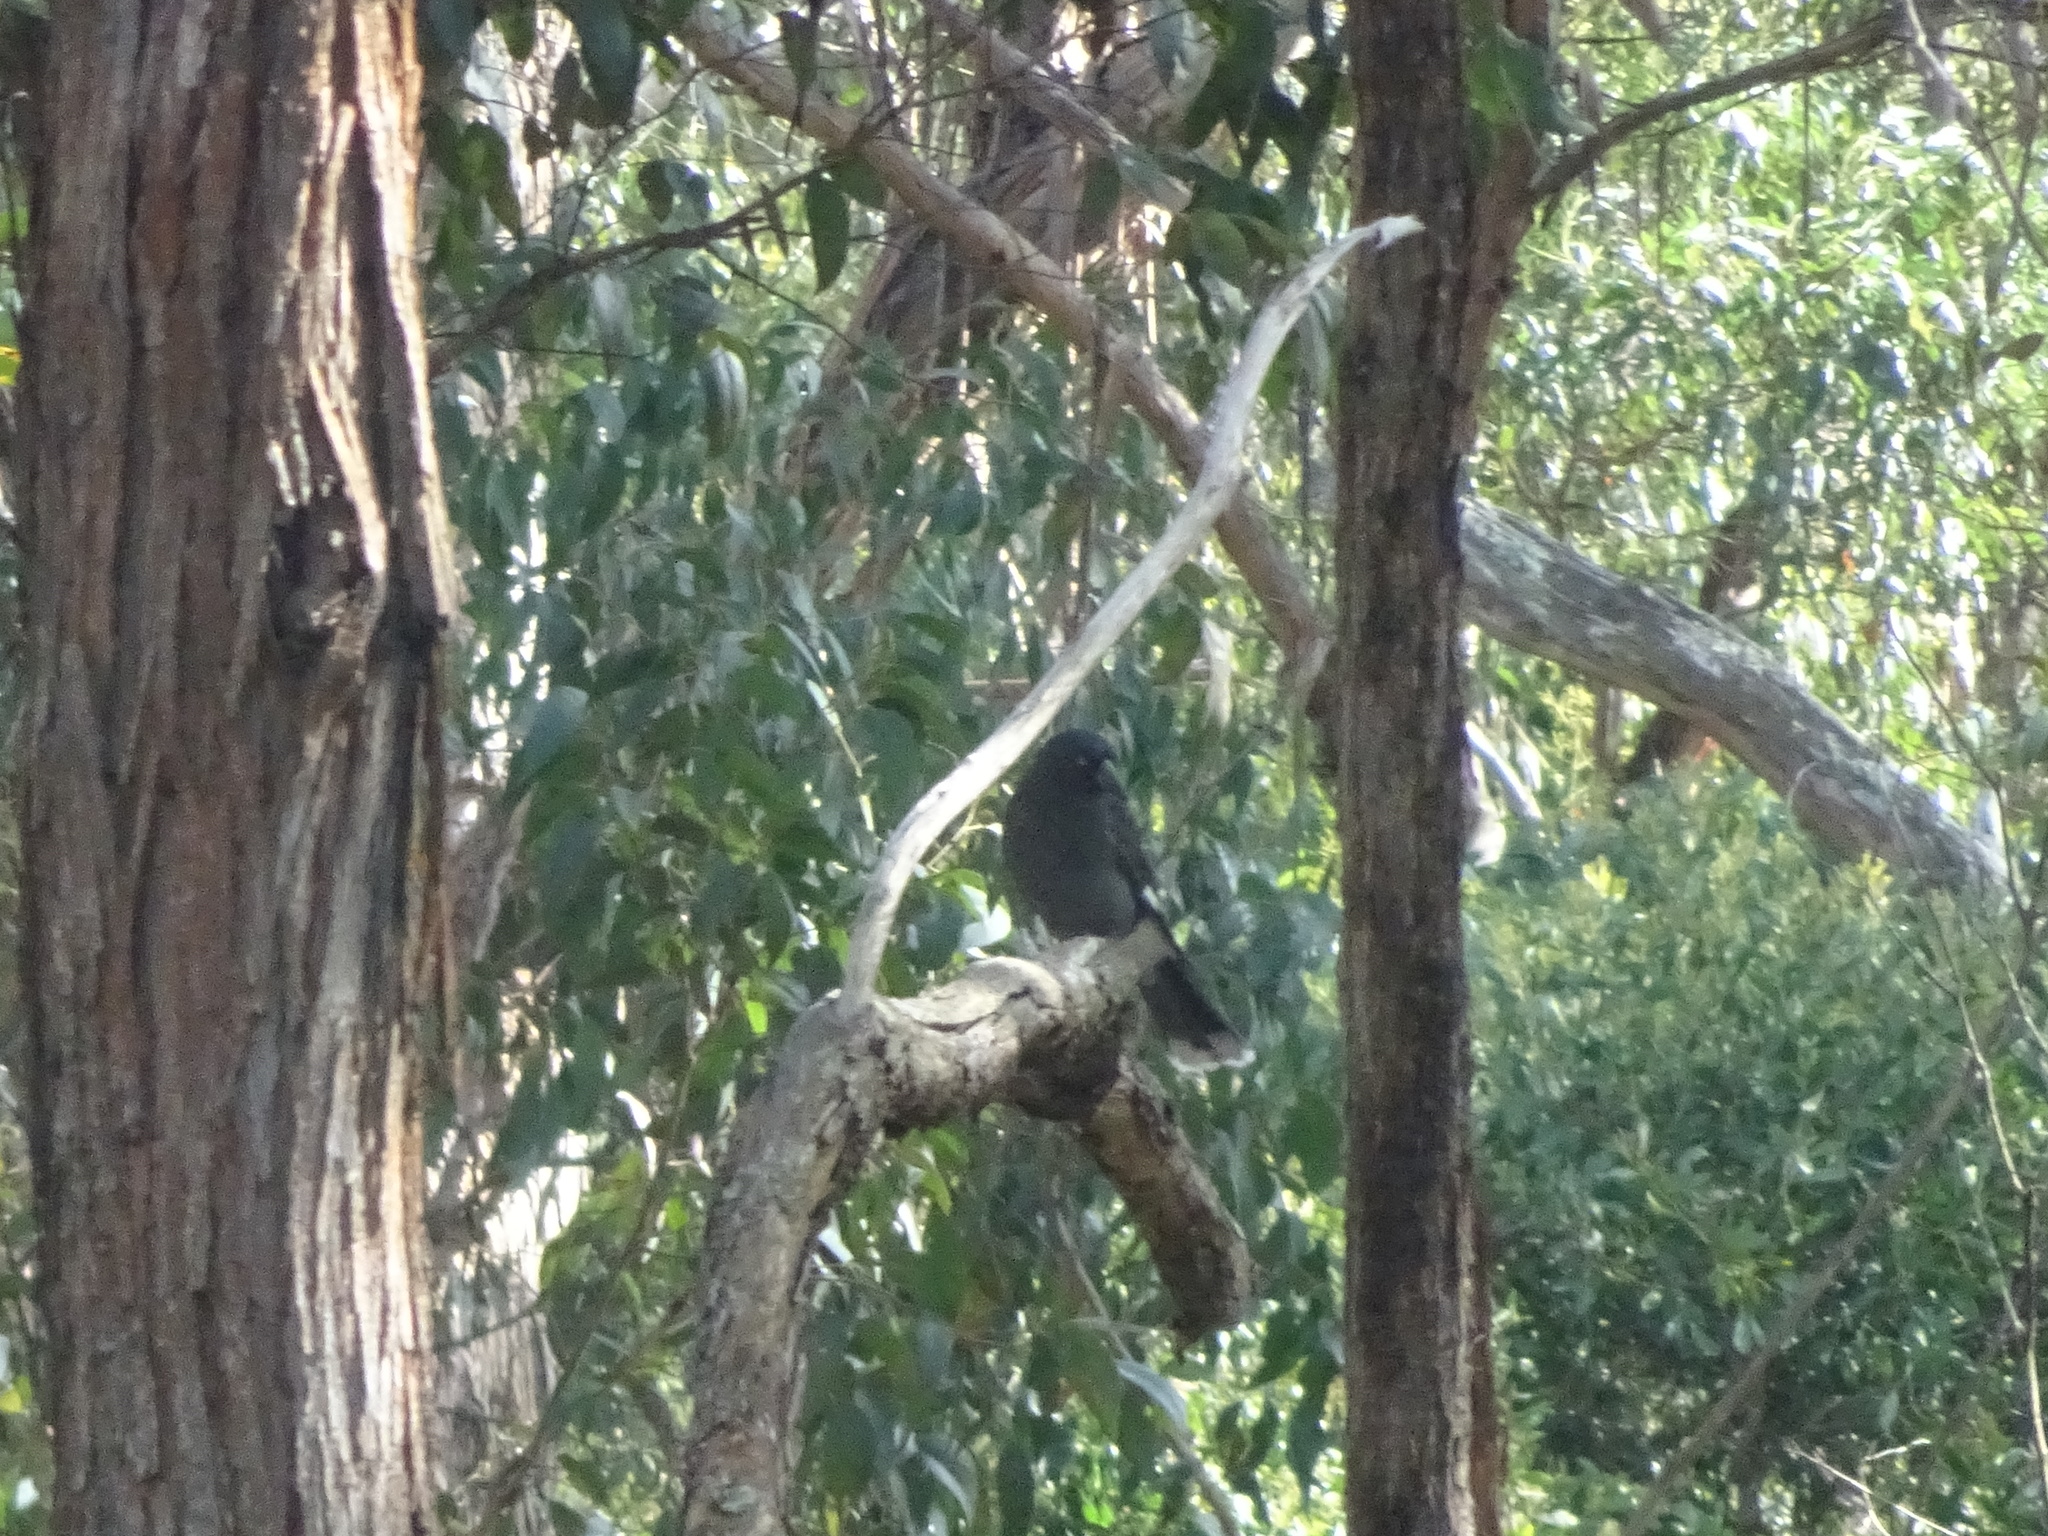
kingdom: Animalia
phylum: Chordata
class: Aves
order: Passeriformes
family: Cracticidae
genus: Strepera
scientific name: Strepera graculina
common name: Pied currawong
